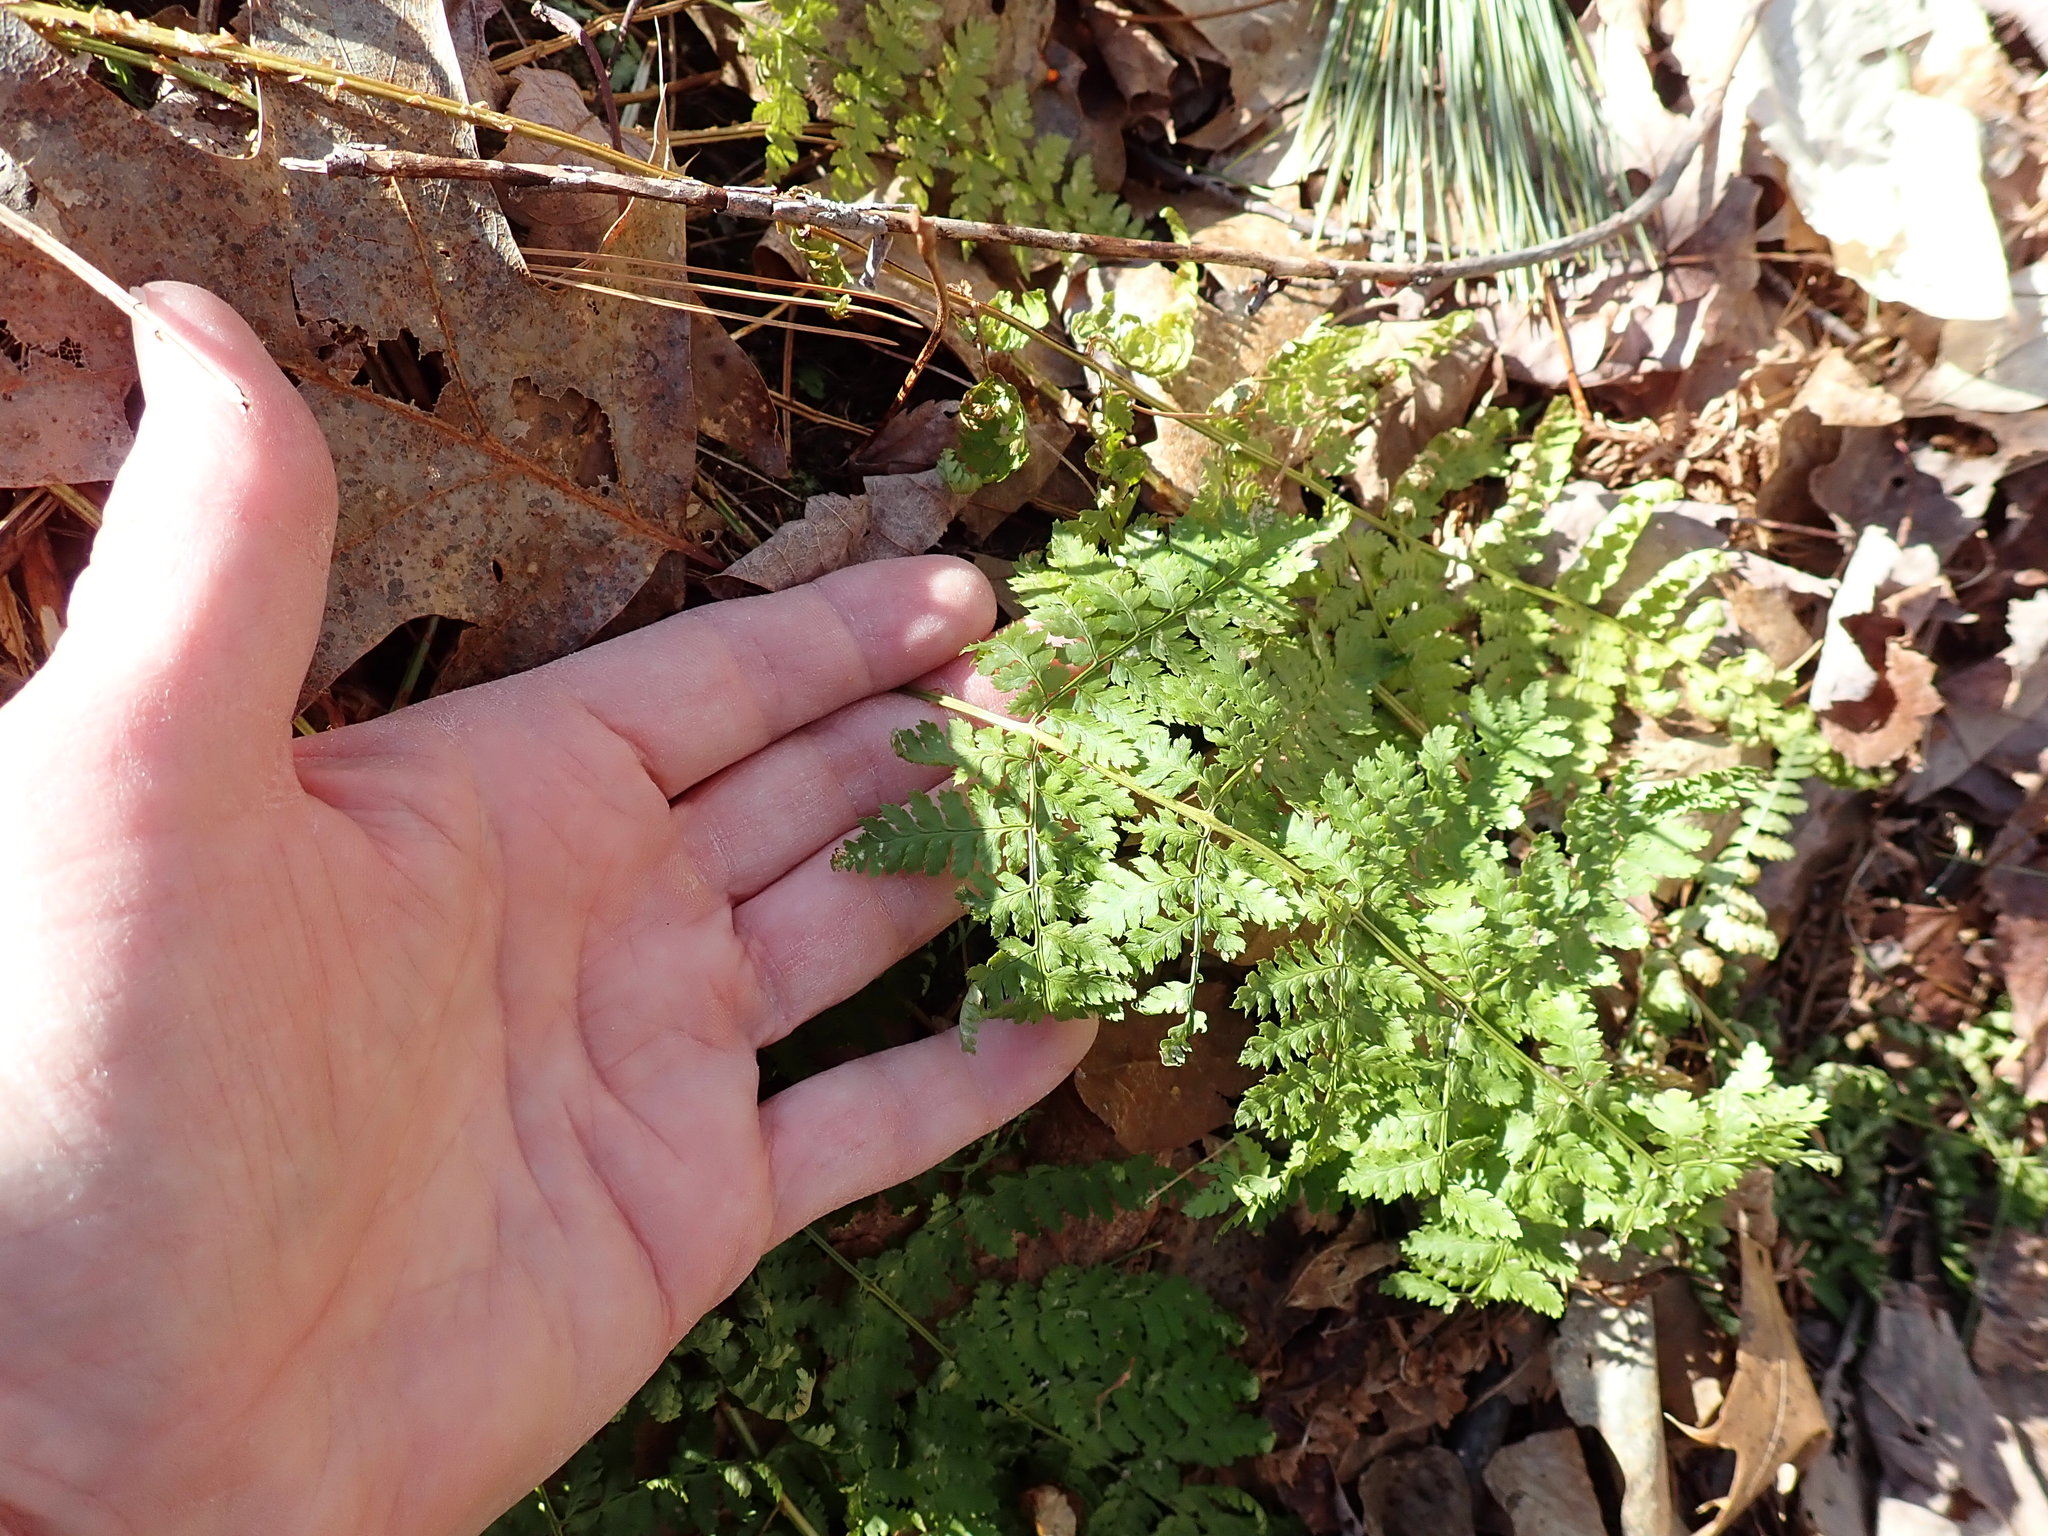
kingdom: Plantae
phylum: Tracheophyta
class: Polypodiopsida
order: Polypodiales
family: Dryopteridaceae
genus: Dryopteris
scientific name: Dryopteris intermedia
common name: Evergreen wood fern
